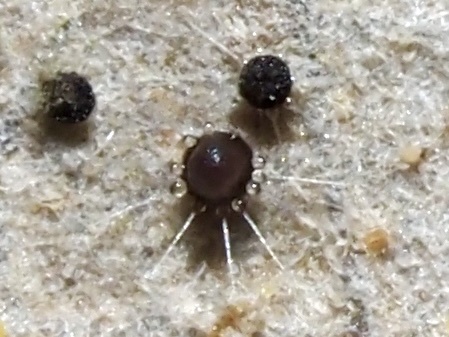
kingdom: Fungi
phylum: Ascomycota
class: Leotiomycetes
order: Helotiales
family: Erysiphaceae
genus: Phyllactinia
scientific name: Phyllactinia angulata
